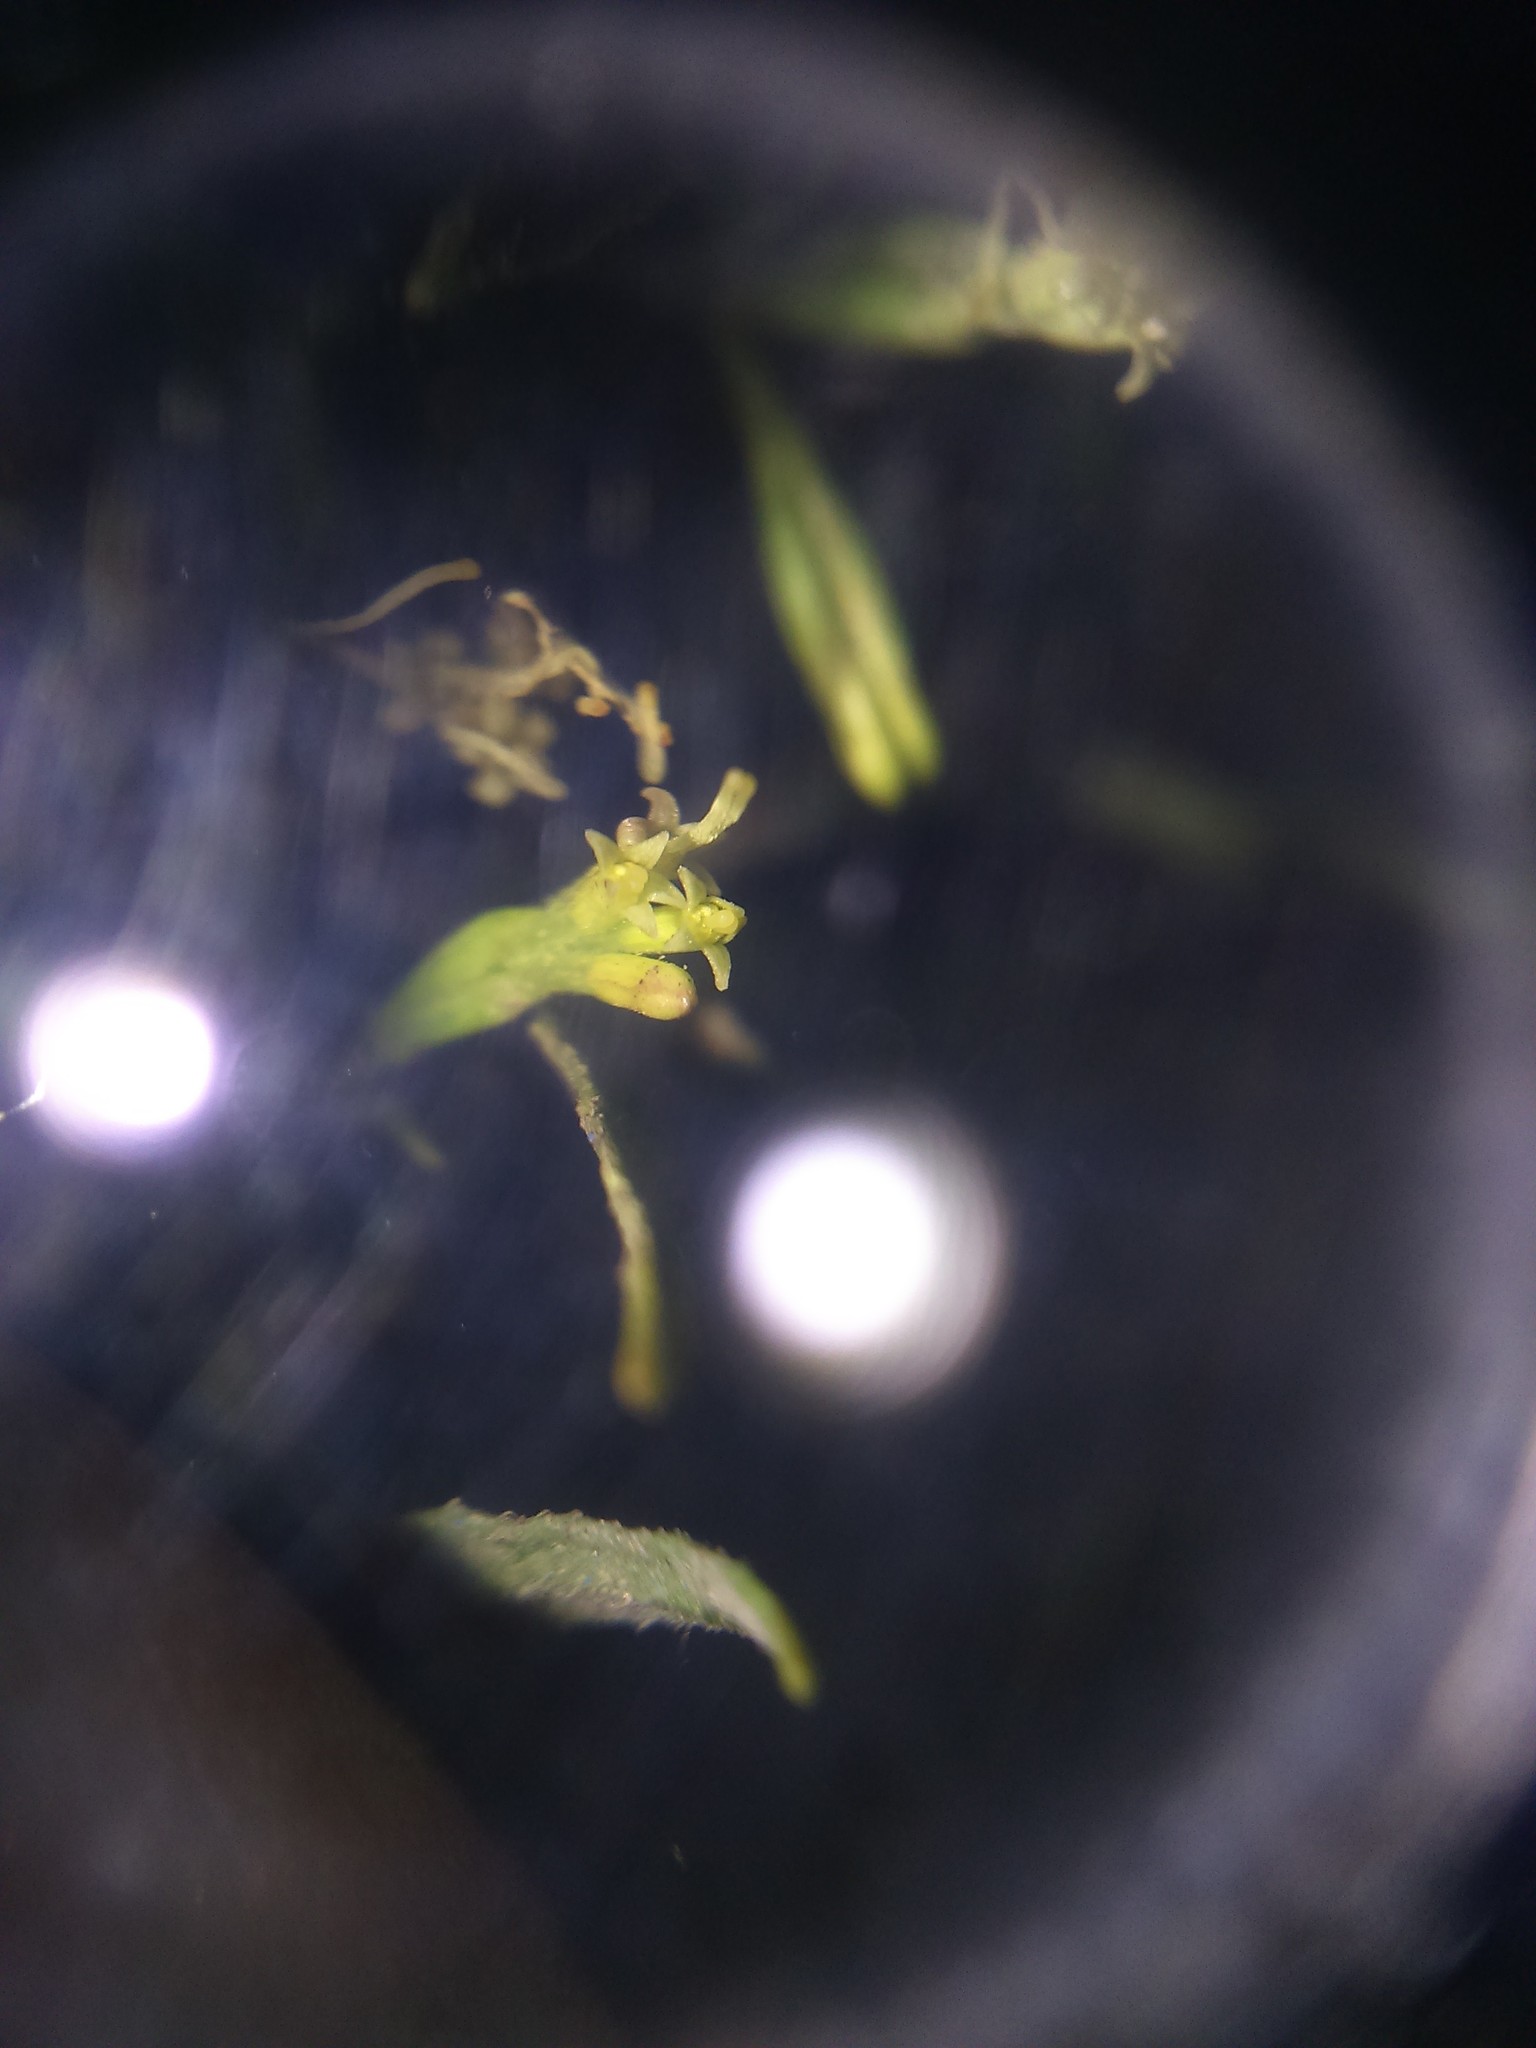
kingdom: Plantae
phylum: Tracheophyta
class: Magnoliopsida
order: Asterales
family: Asteraceae
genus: Ophryosporus
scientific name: Ophryosporus peruvianus
